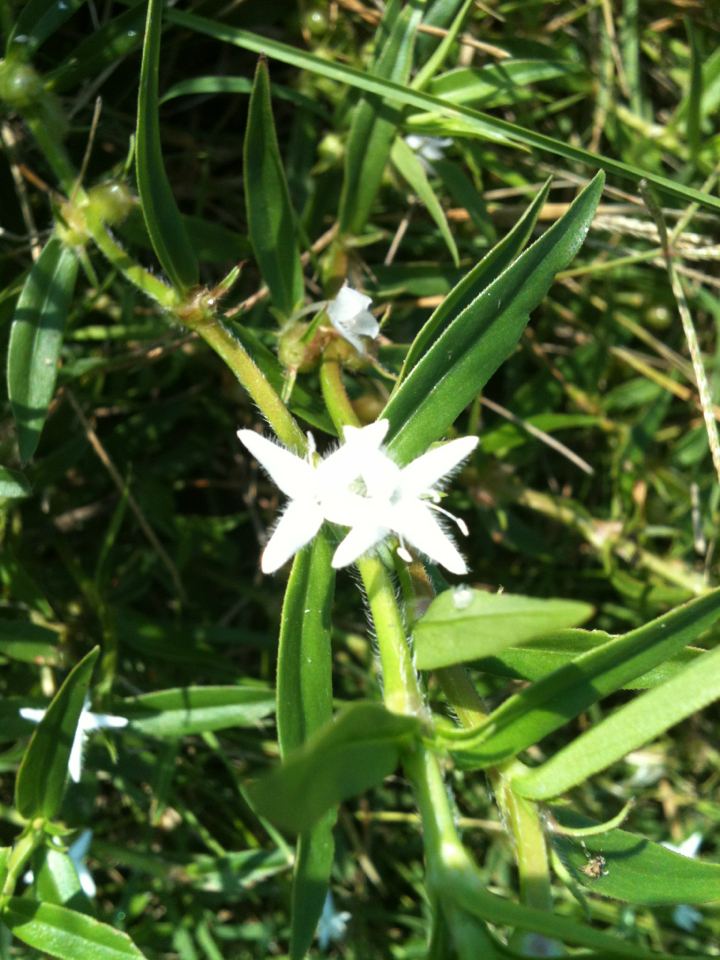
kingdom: Plantae
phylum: Tracheophyta
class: Magnoliopsida
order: Gentianales
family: Rubiaceae
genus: Diodia
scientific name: Diodia virginiana
